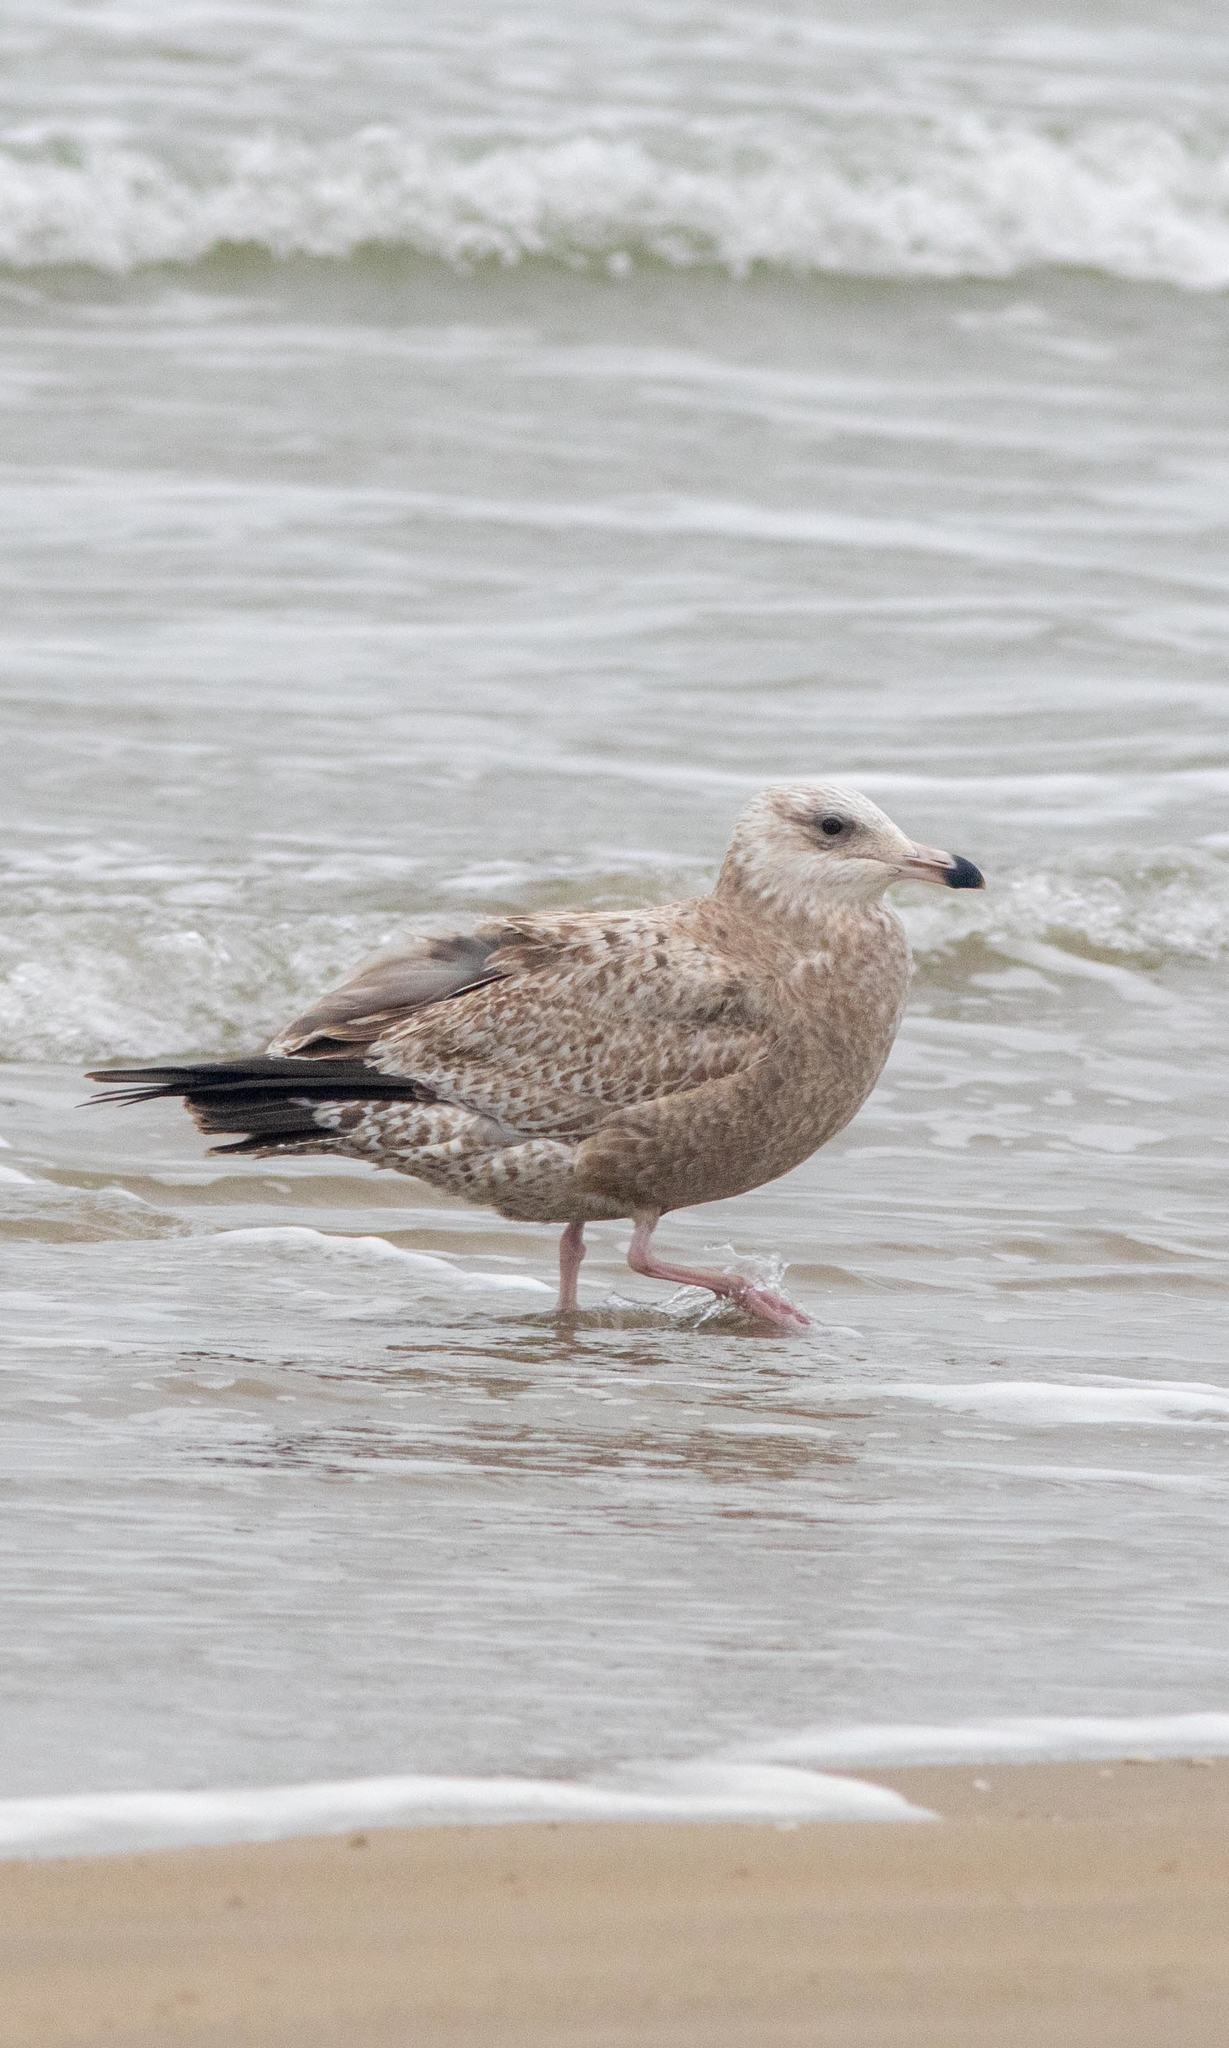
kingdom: Animalia
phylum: Chordata
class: Aves
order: Charadriiformes
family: Laridae
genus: Larus
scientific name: Larus argentatus
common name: Herring gull
